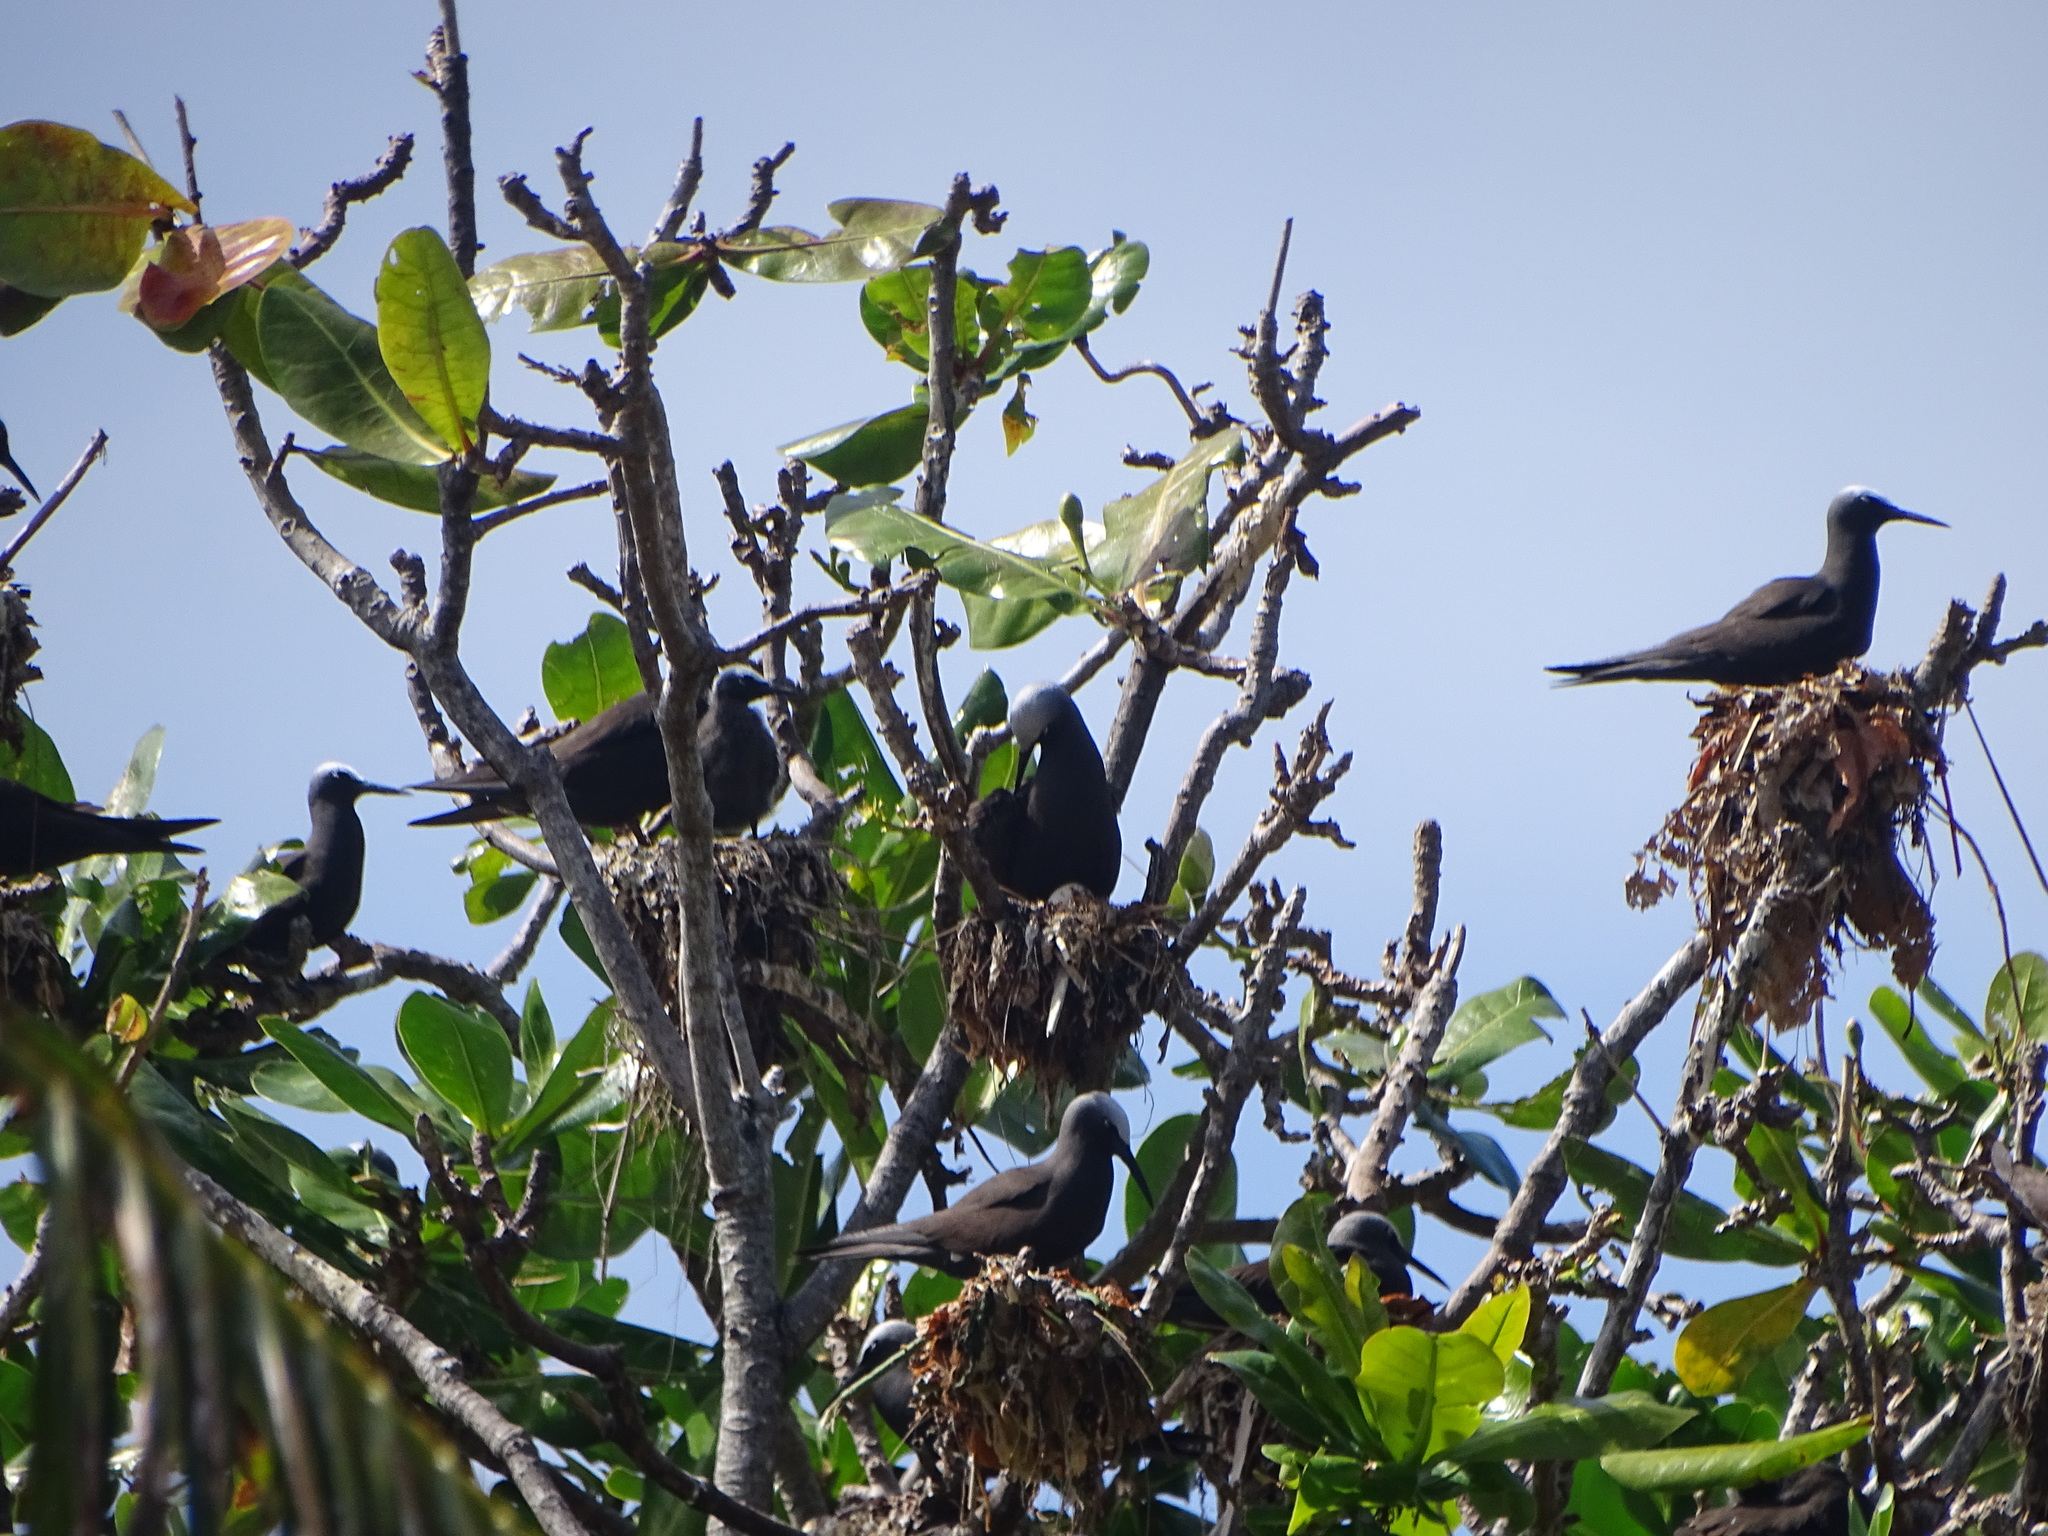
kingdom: Animalia
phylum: Chordata
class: Aves
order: Charadriiformes
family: Laridae
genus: Anous
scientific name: Anous stolidus
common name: Brown noddy
